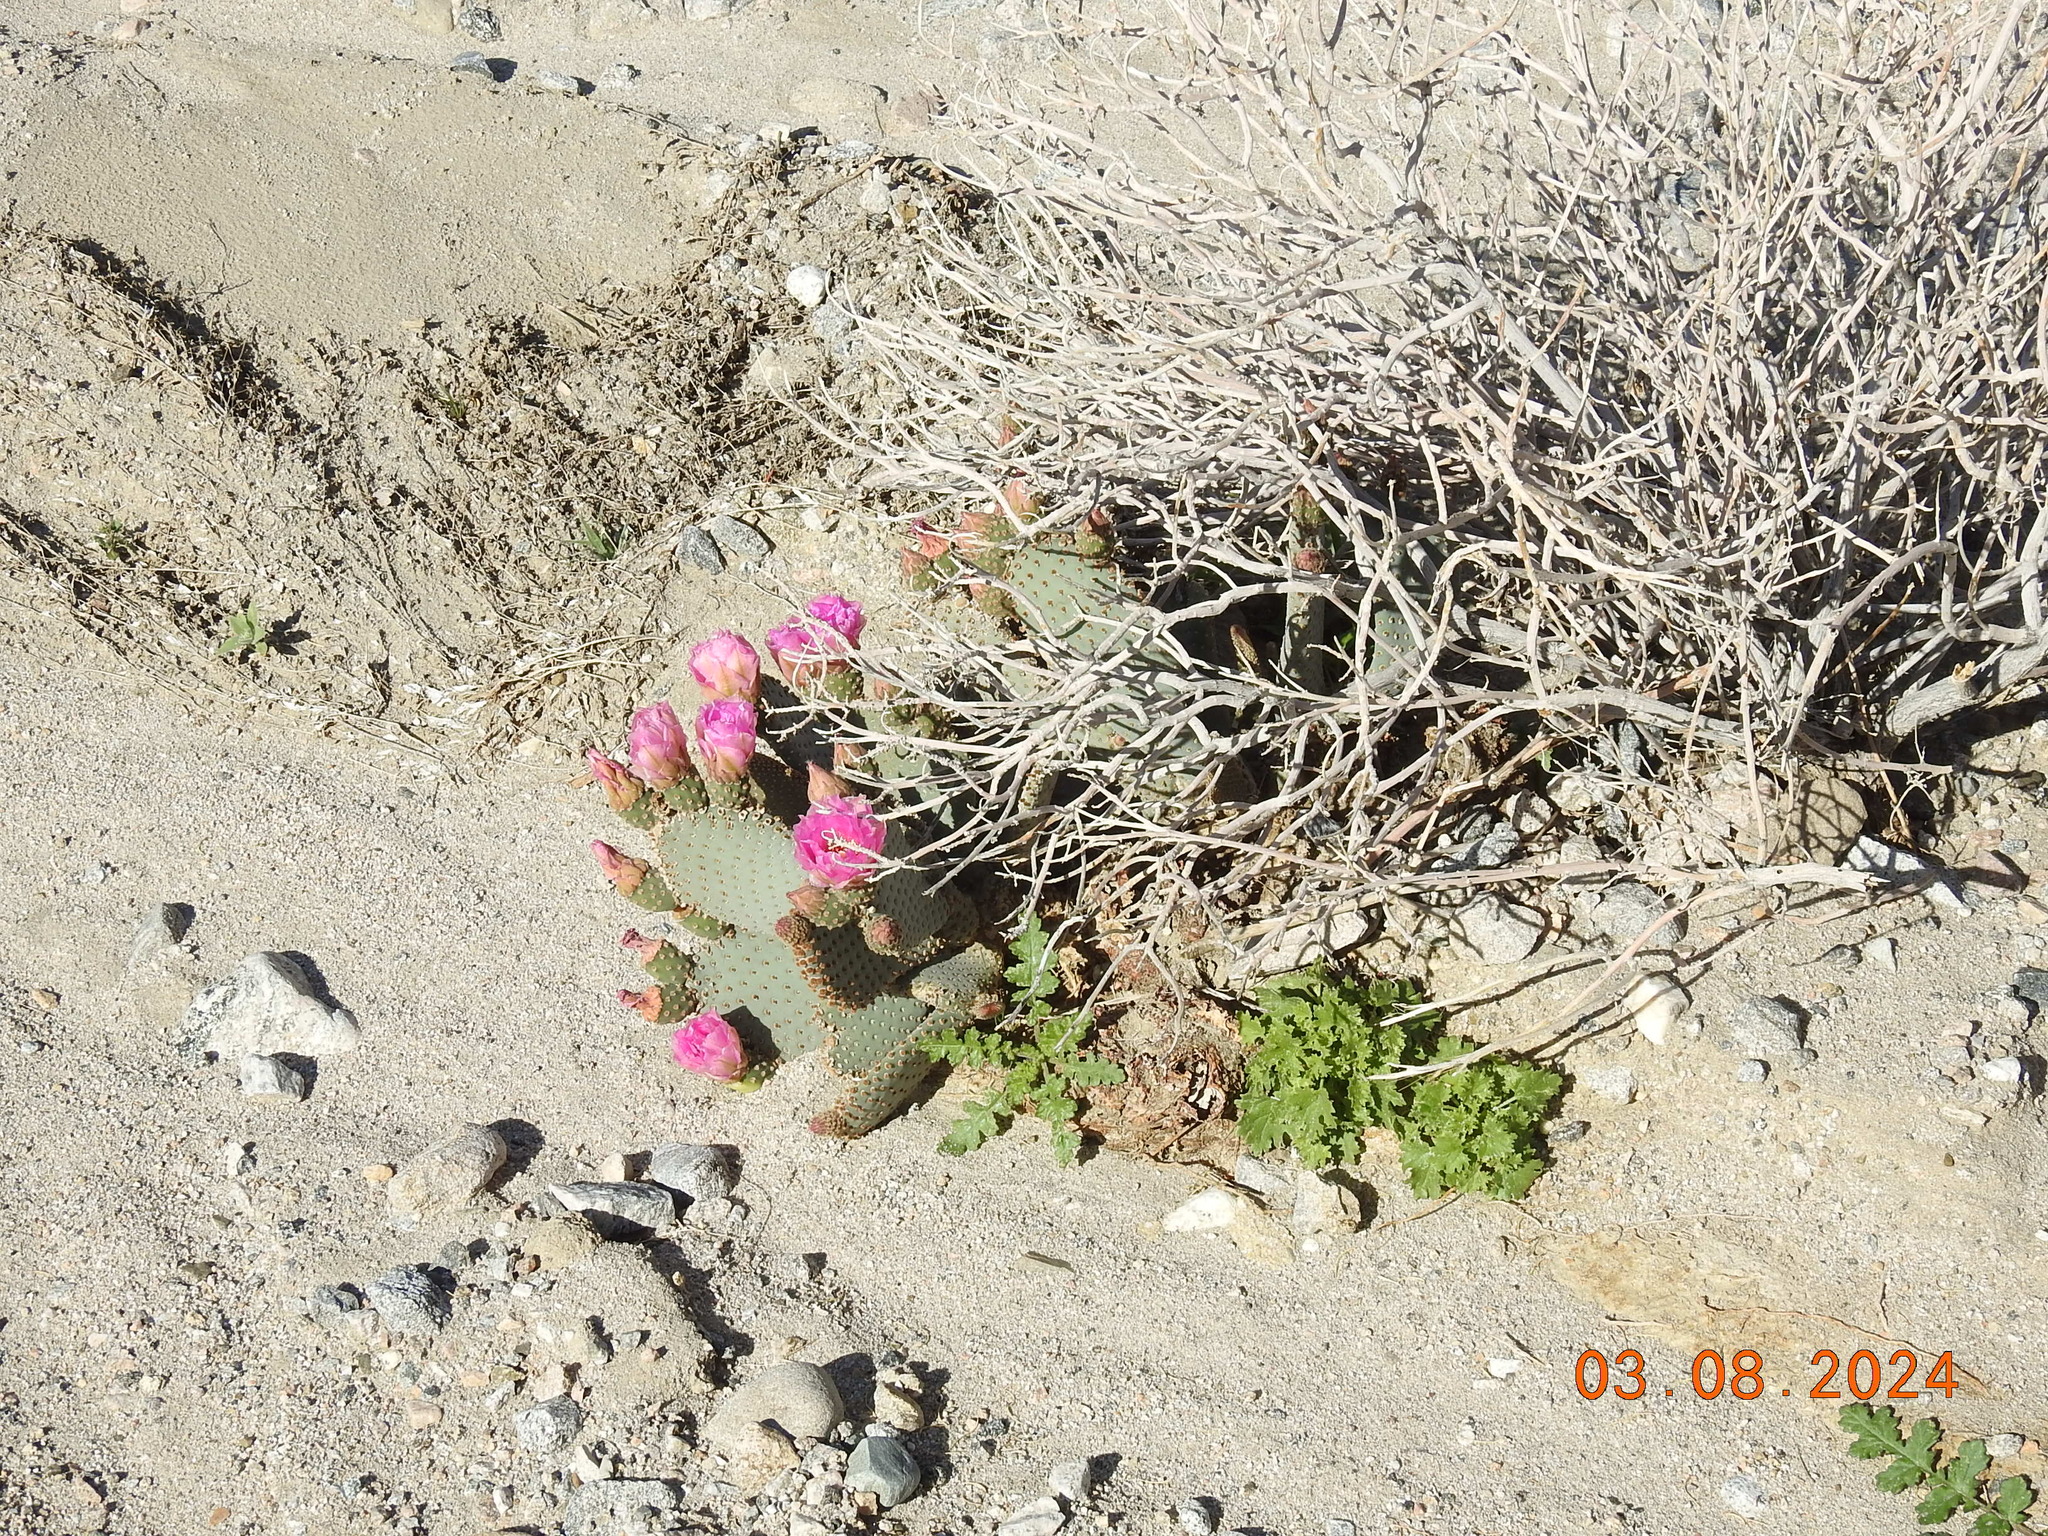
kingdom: Plantae
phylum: Tracheophyta
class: Magnoliopsida
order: Caryophyllales
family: Cactaceae
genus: Opuntia
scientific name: Opuntia basilaris
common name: Beavertail prickly-pear
